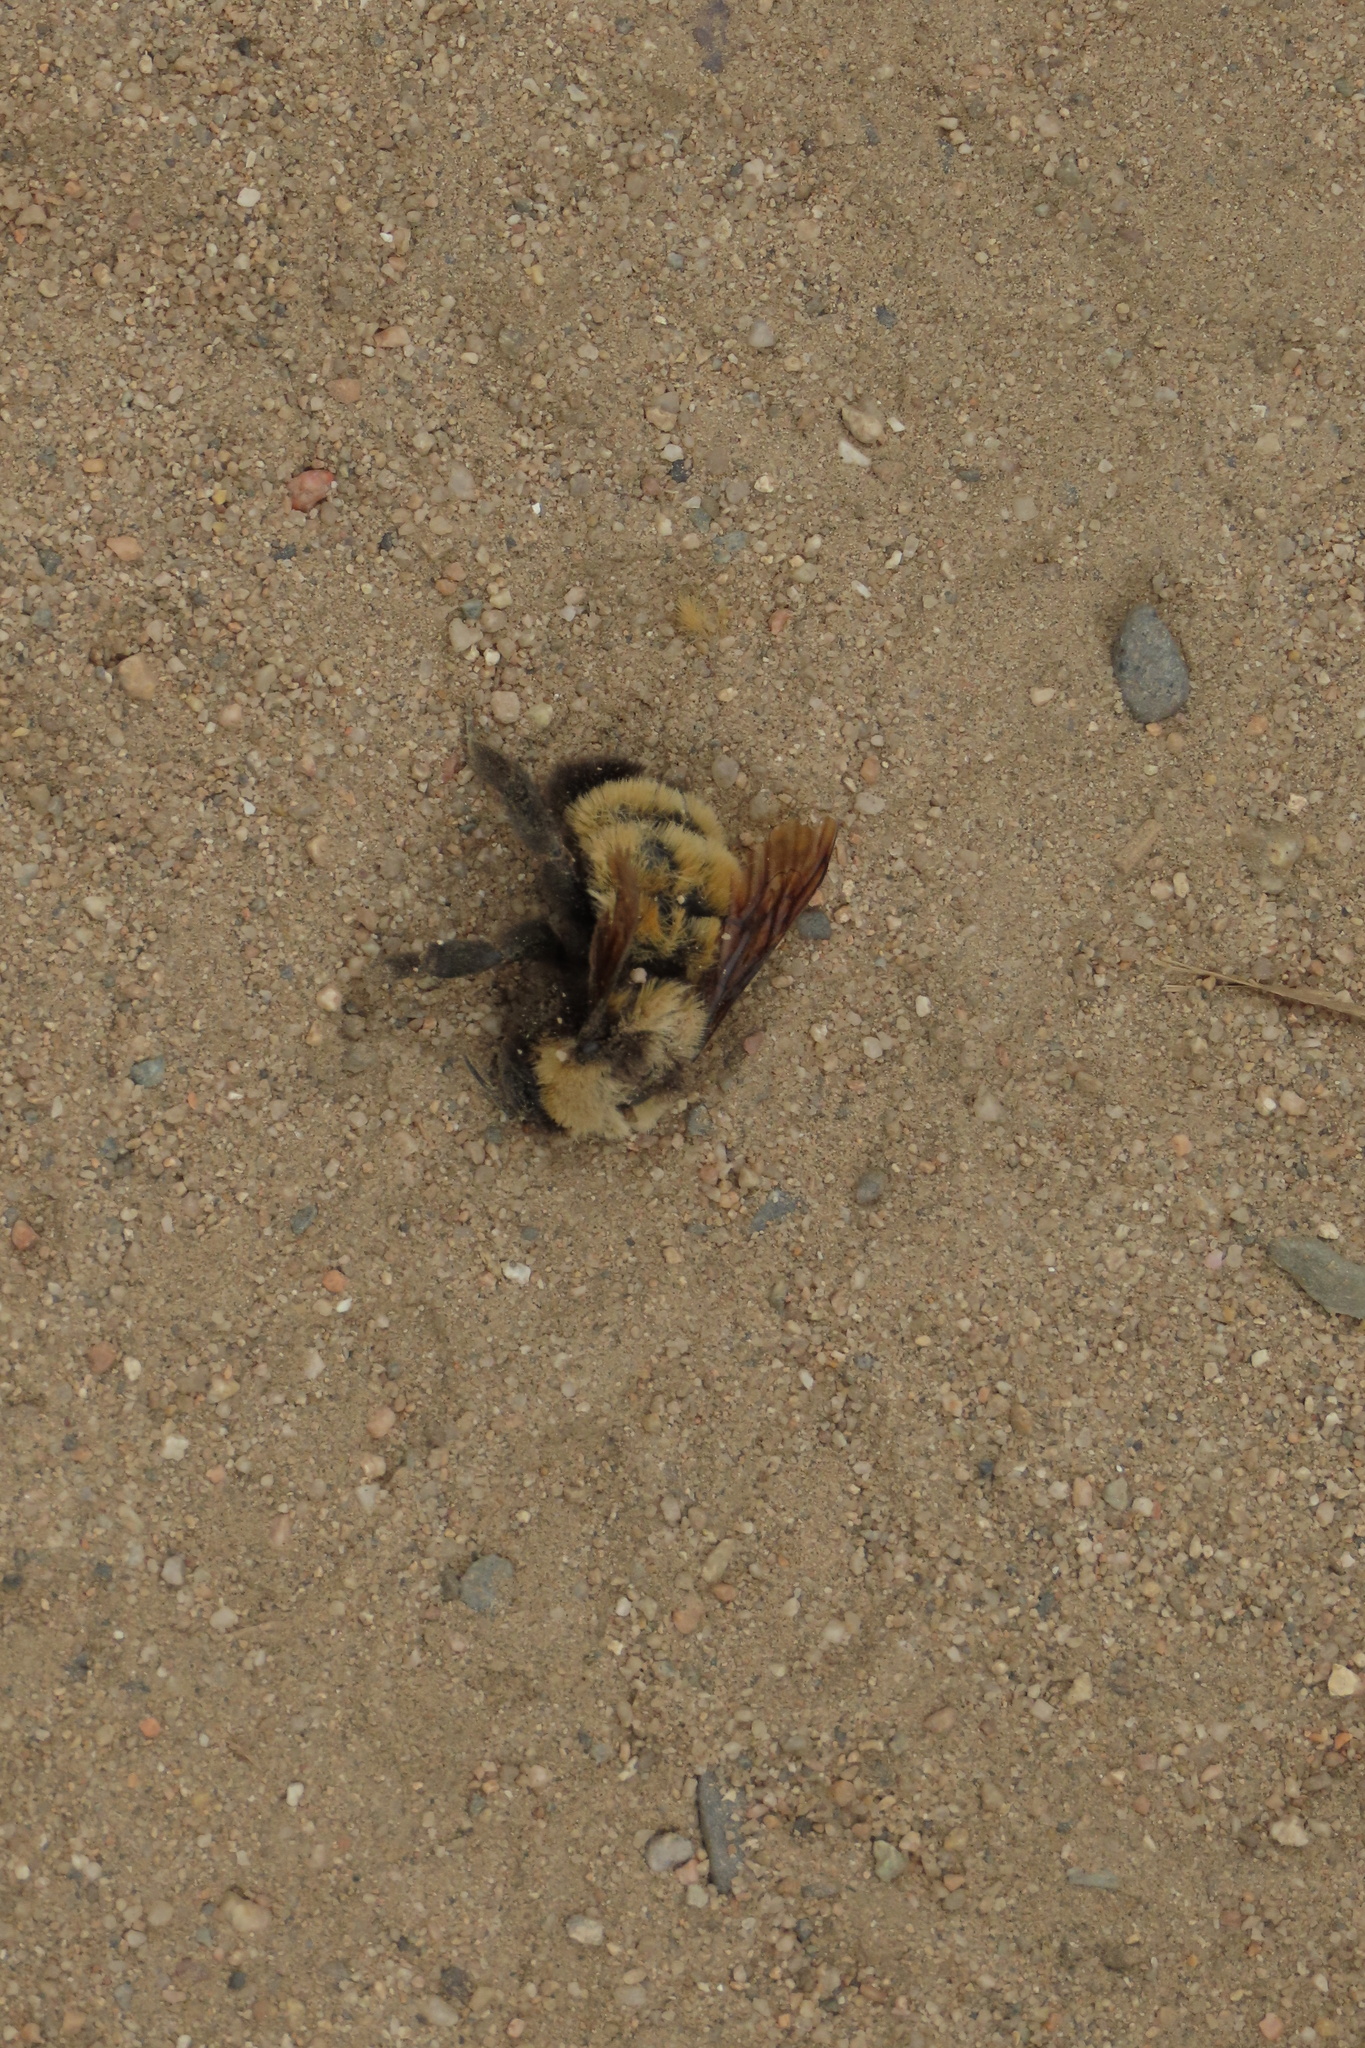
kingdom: Animalia
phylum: Arthropoda
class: Insecta
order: Hymenoptera
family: Apidae
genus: Bombus
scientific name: Bombus sonorus
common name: Sonoran bumble bee
